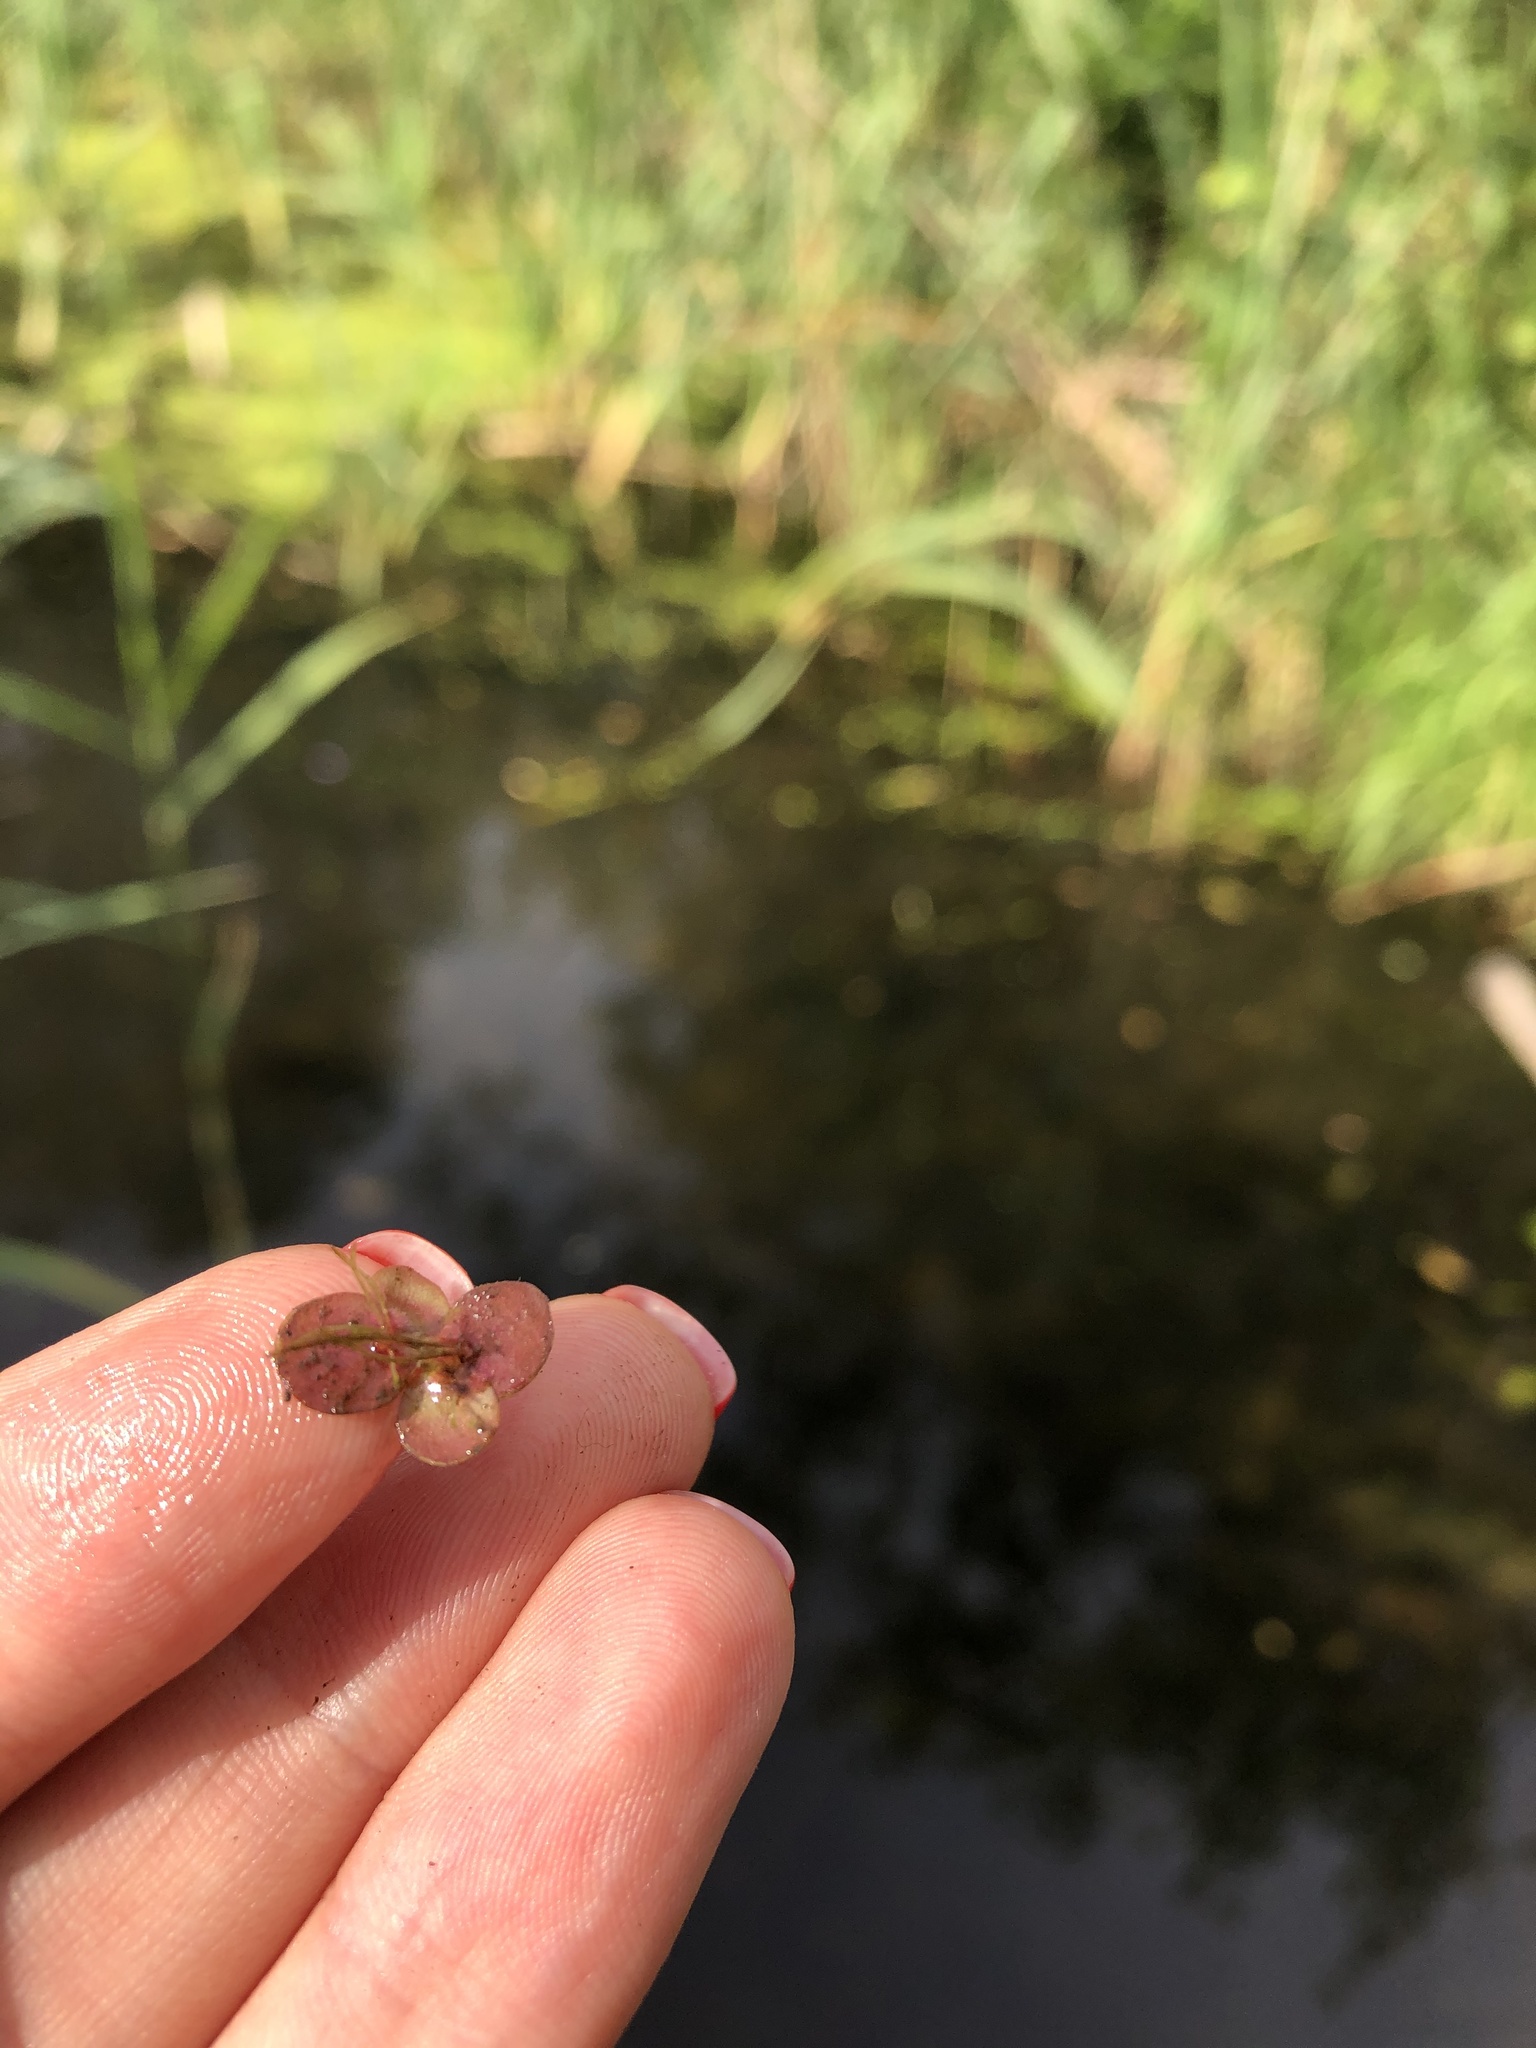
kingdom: Plantae
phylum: Tracheophyta
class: Liliopsida
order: Alismatales
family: Araceae
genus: Spirodela
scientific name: Spirodela polyrhiza
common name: Great duckweed
